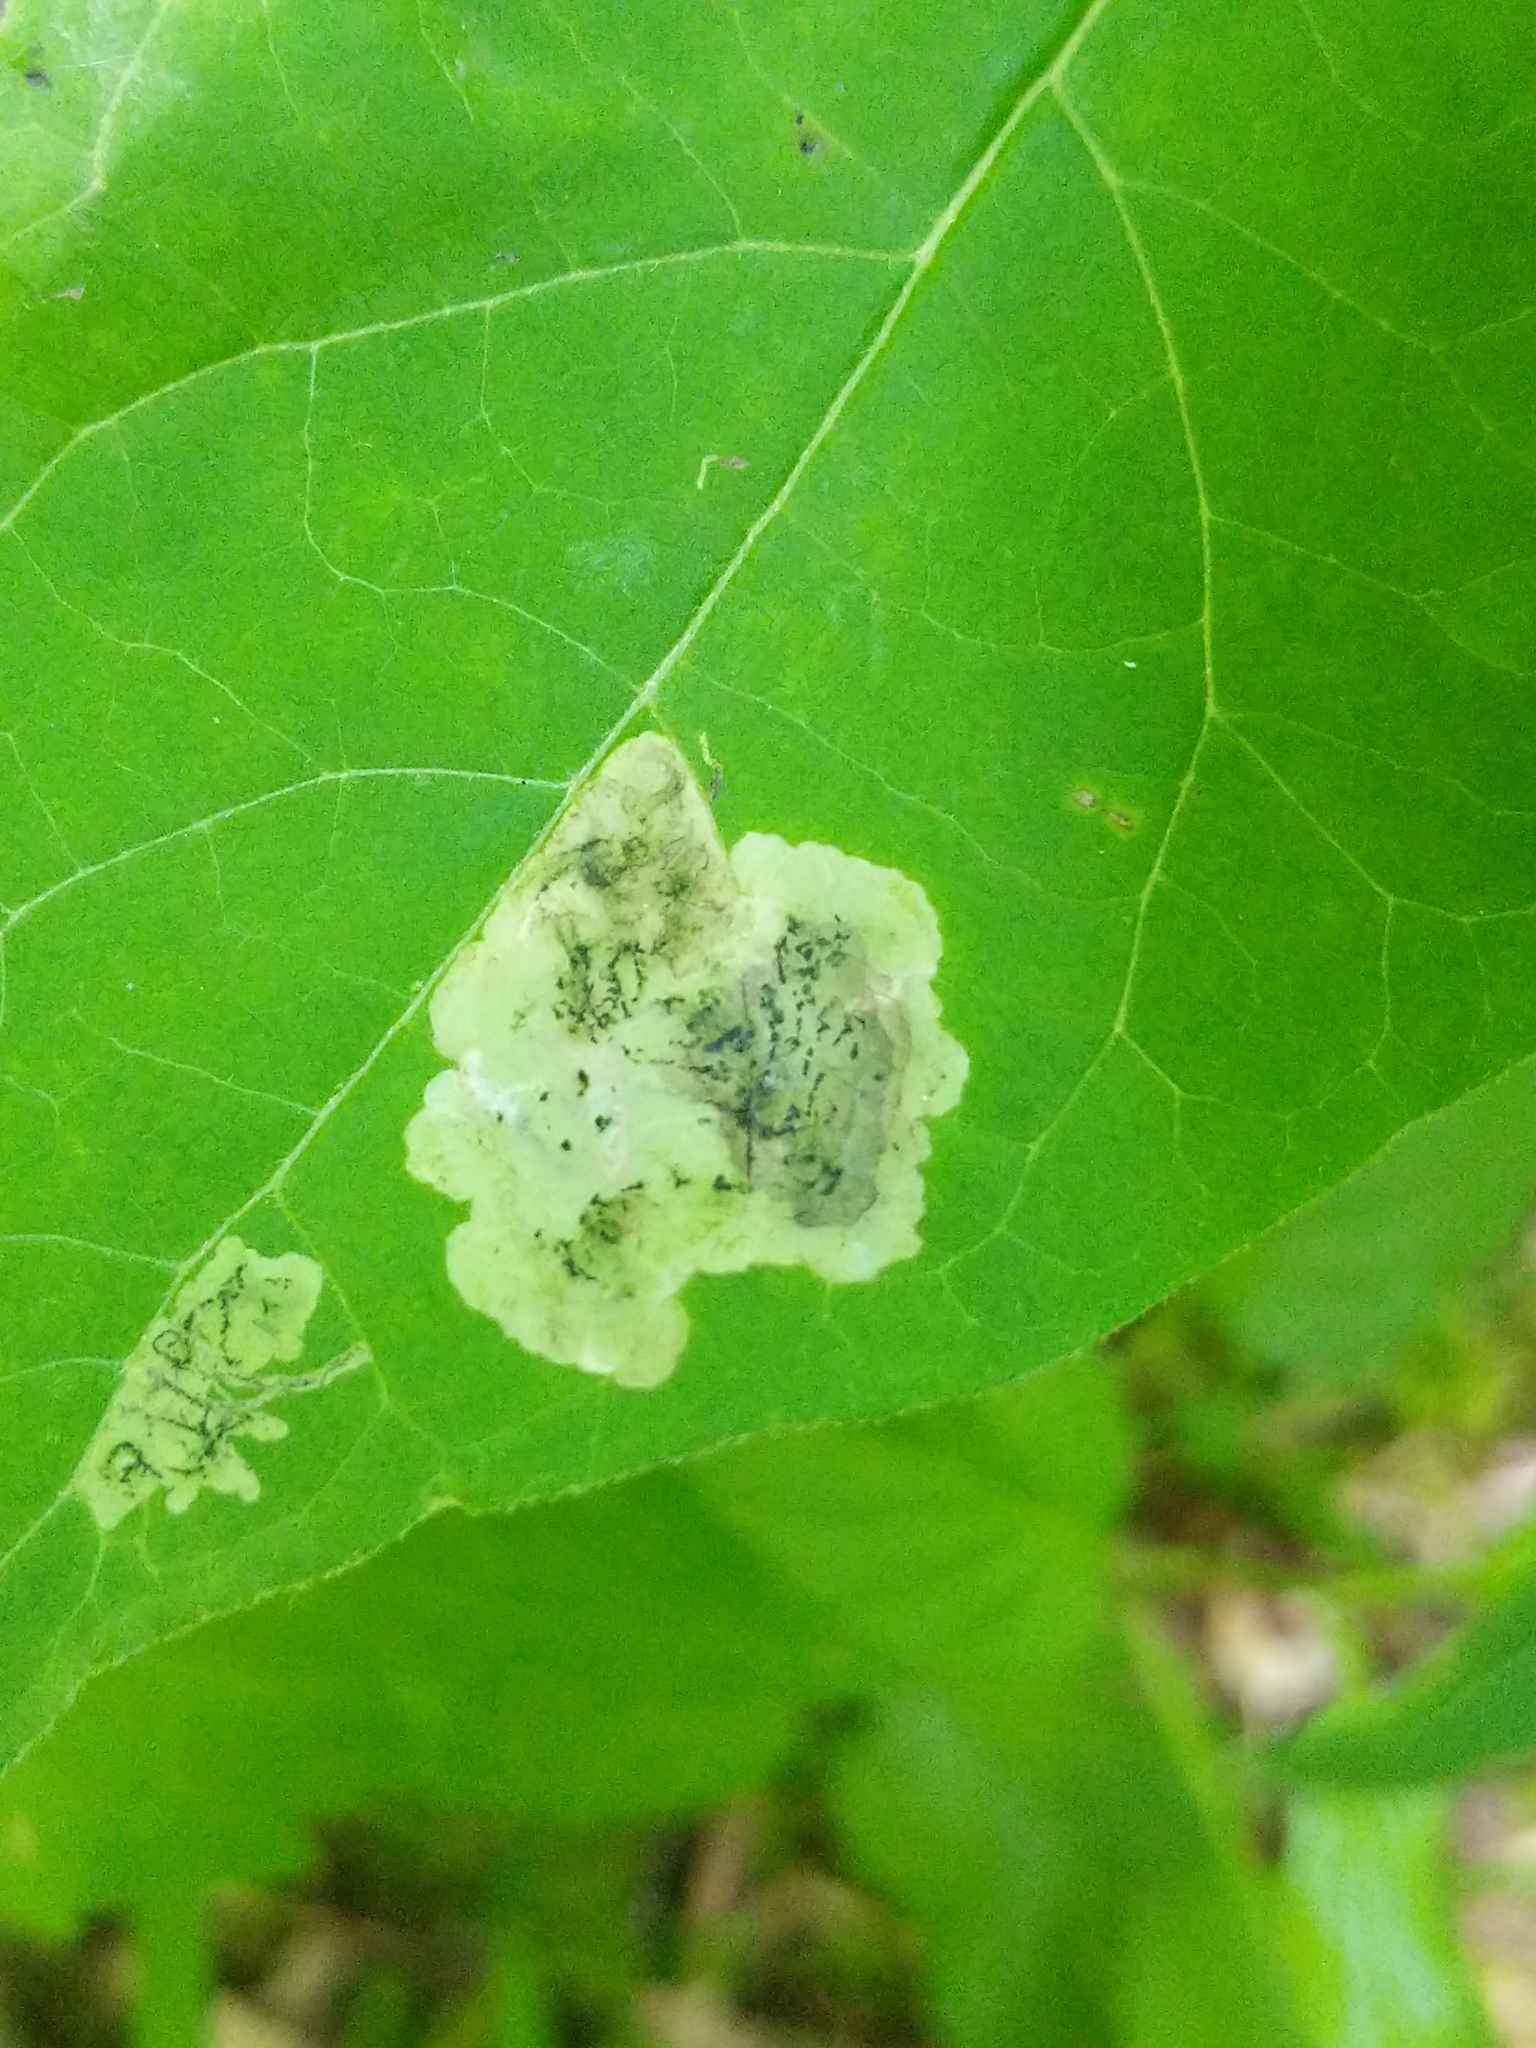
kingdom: Animalia
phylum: Arthropoda
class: Insecta
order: Diptera
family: Agromyzidae
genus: Liriomyza
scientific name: Liriomyza asclepiadis
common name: Milkweed leaf-miner fly
